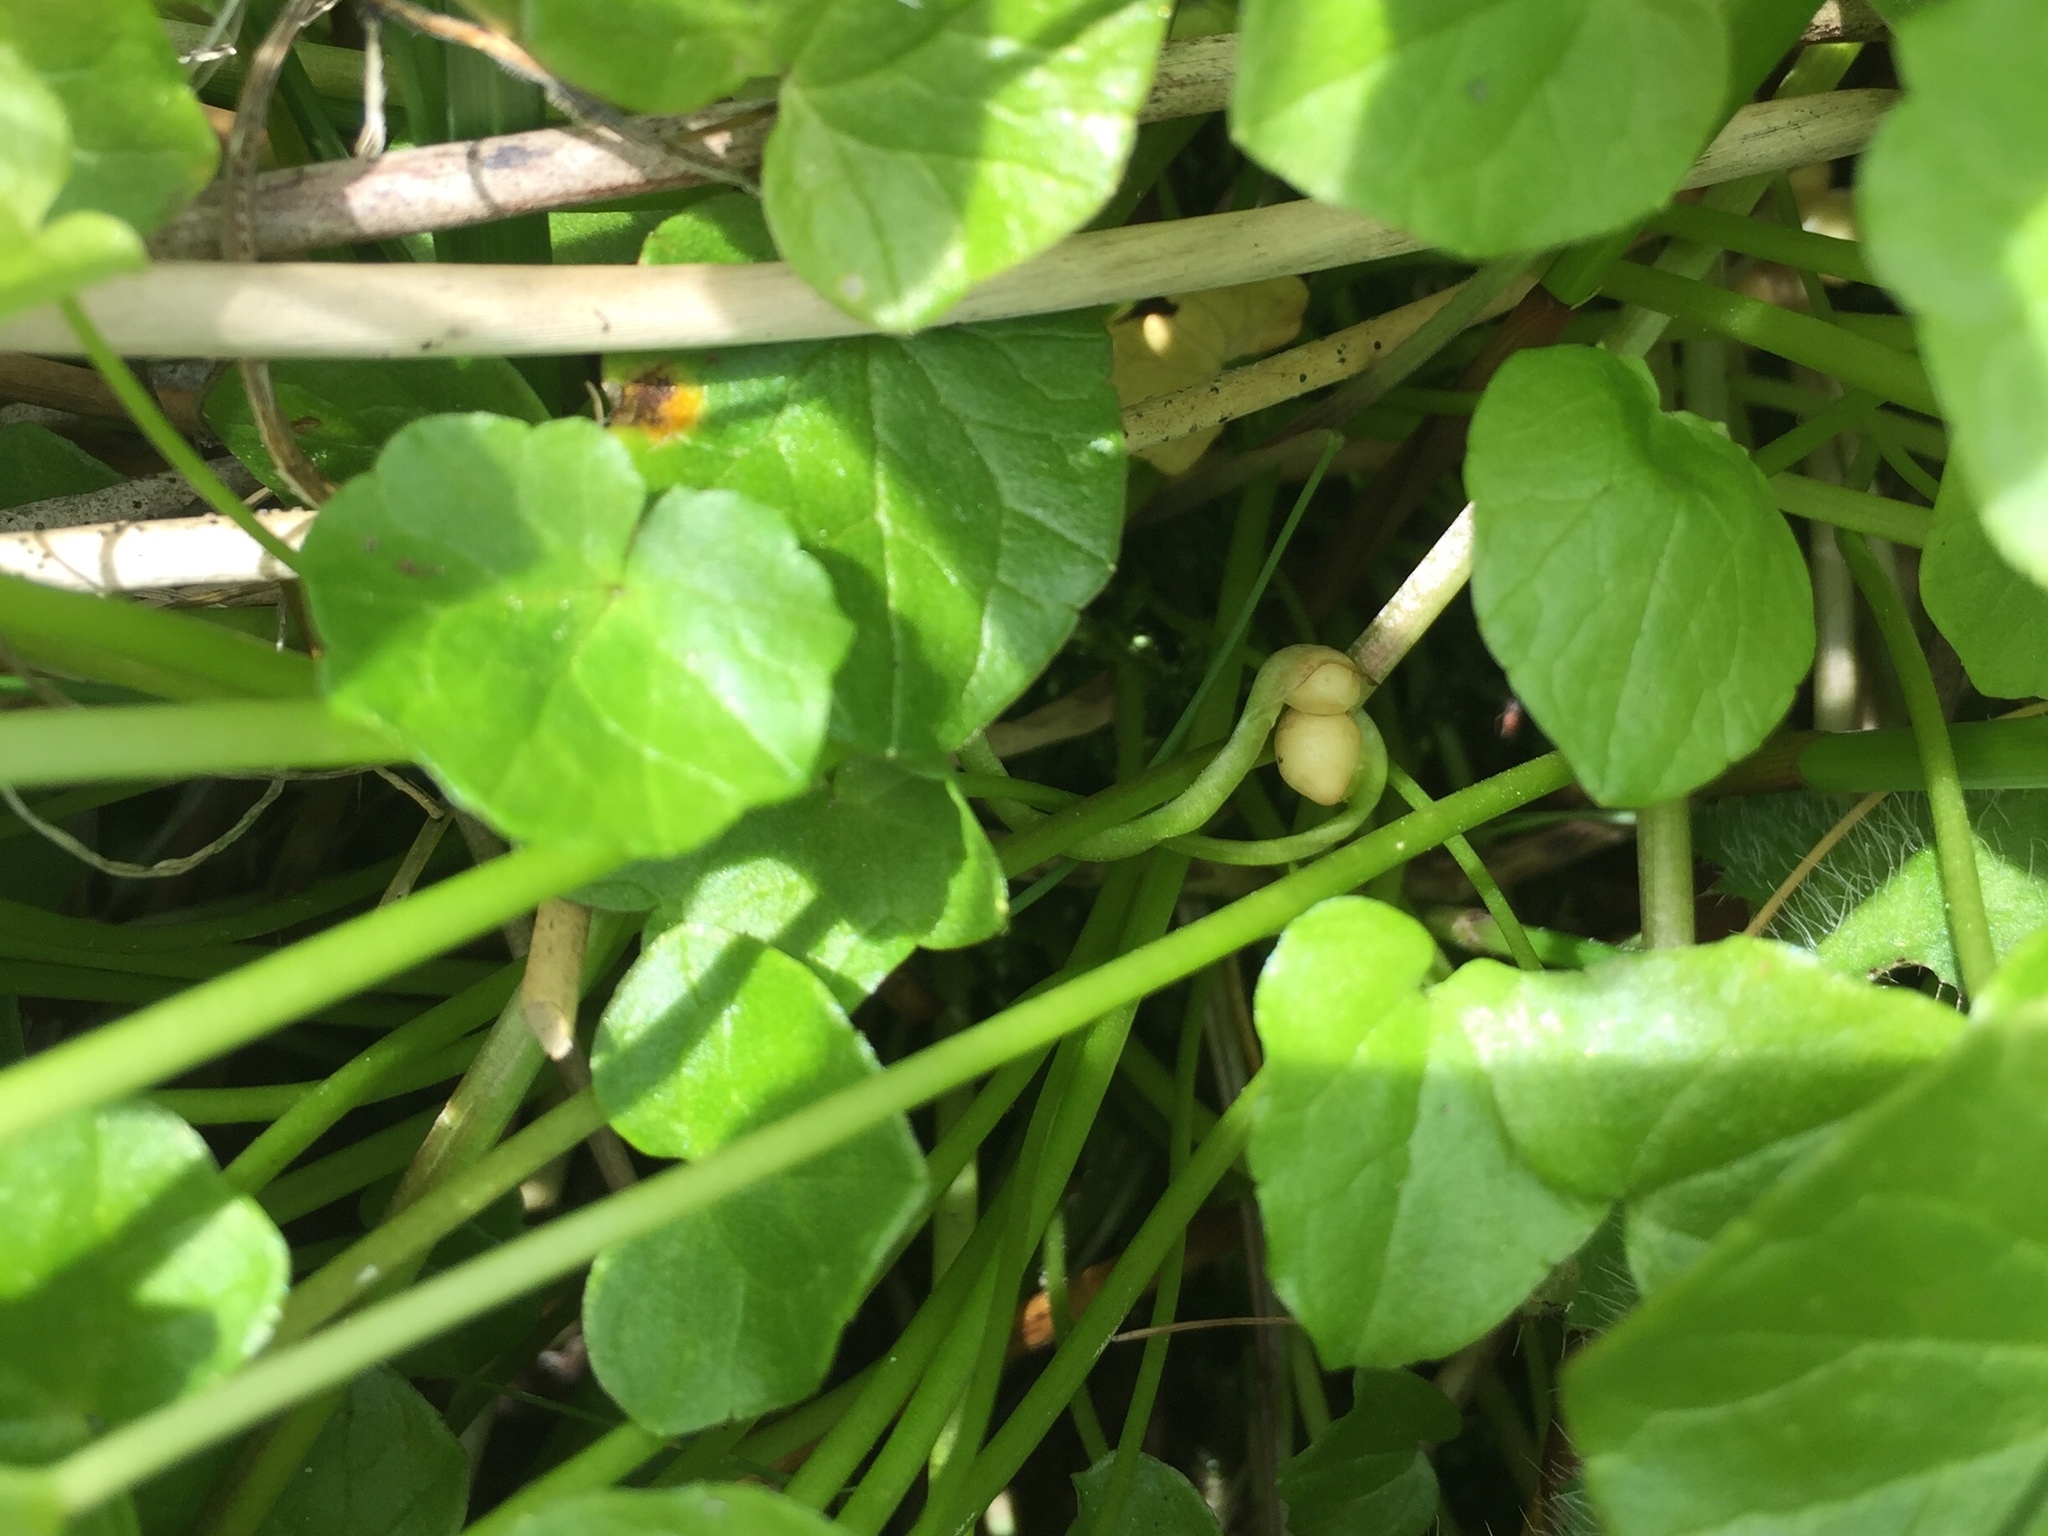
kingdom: Plantae
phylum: Tracheophyta
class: Magnoliopsida
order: Ranunculales
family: Ranunculaceae
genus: Ficaria
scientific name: Ficaria verna
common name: Lesser celandine
